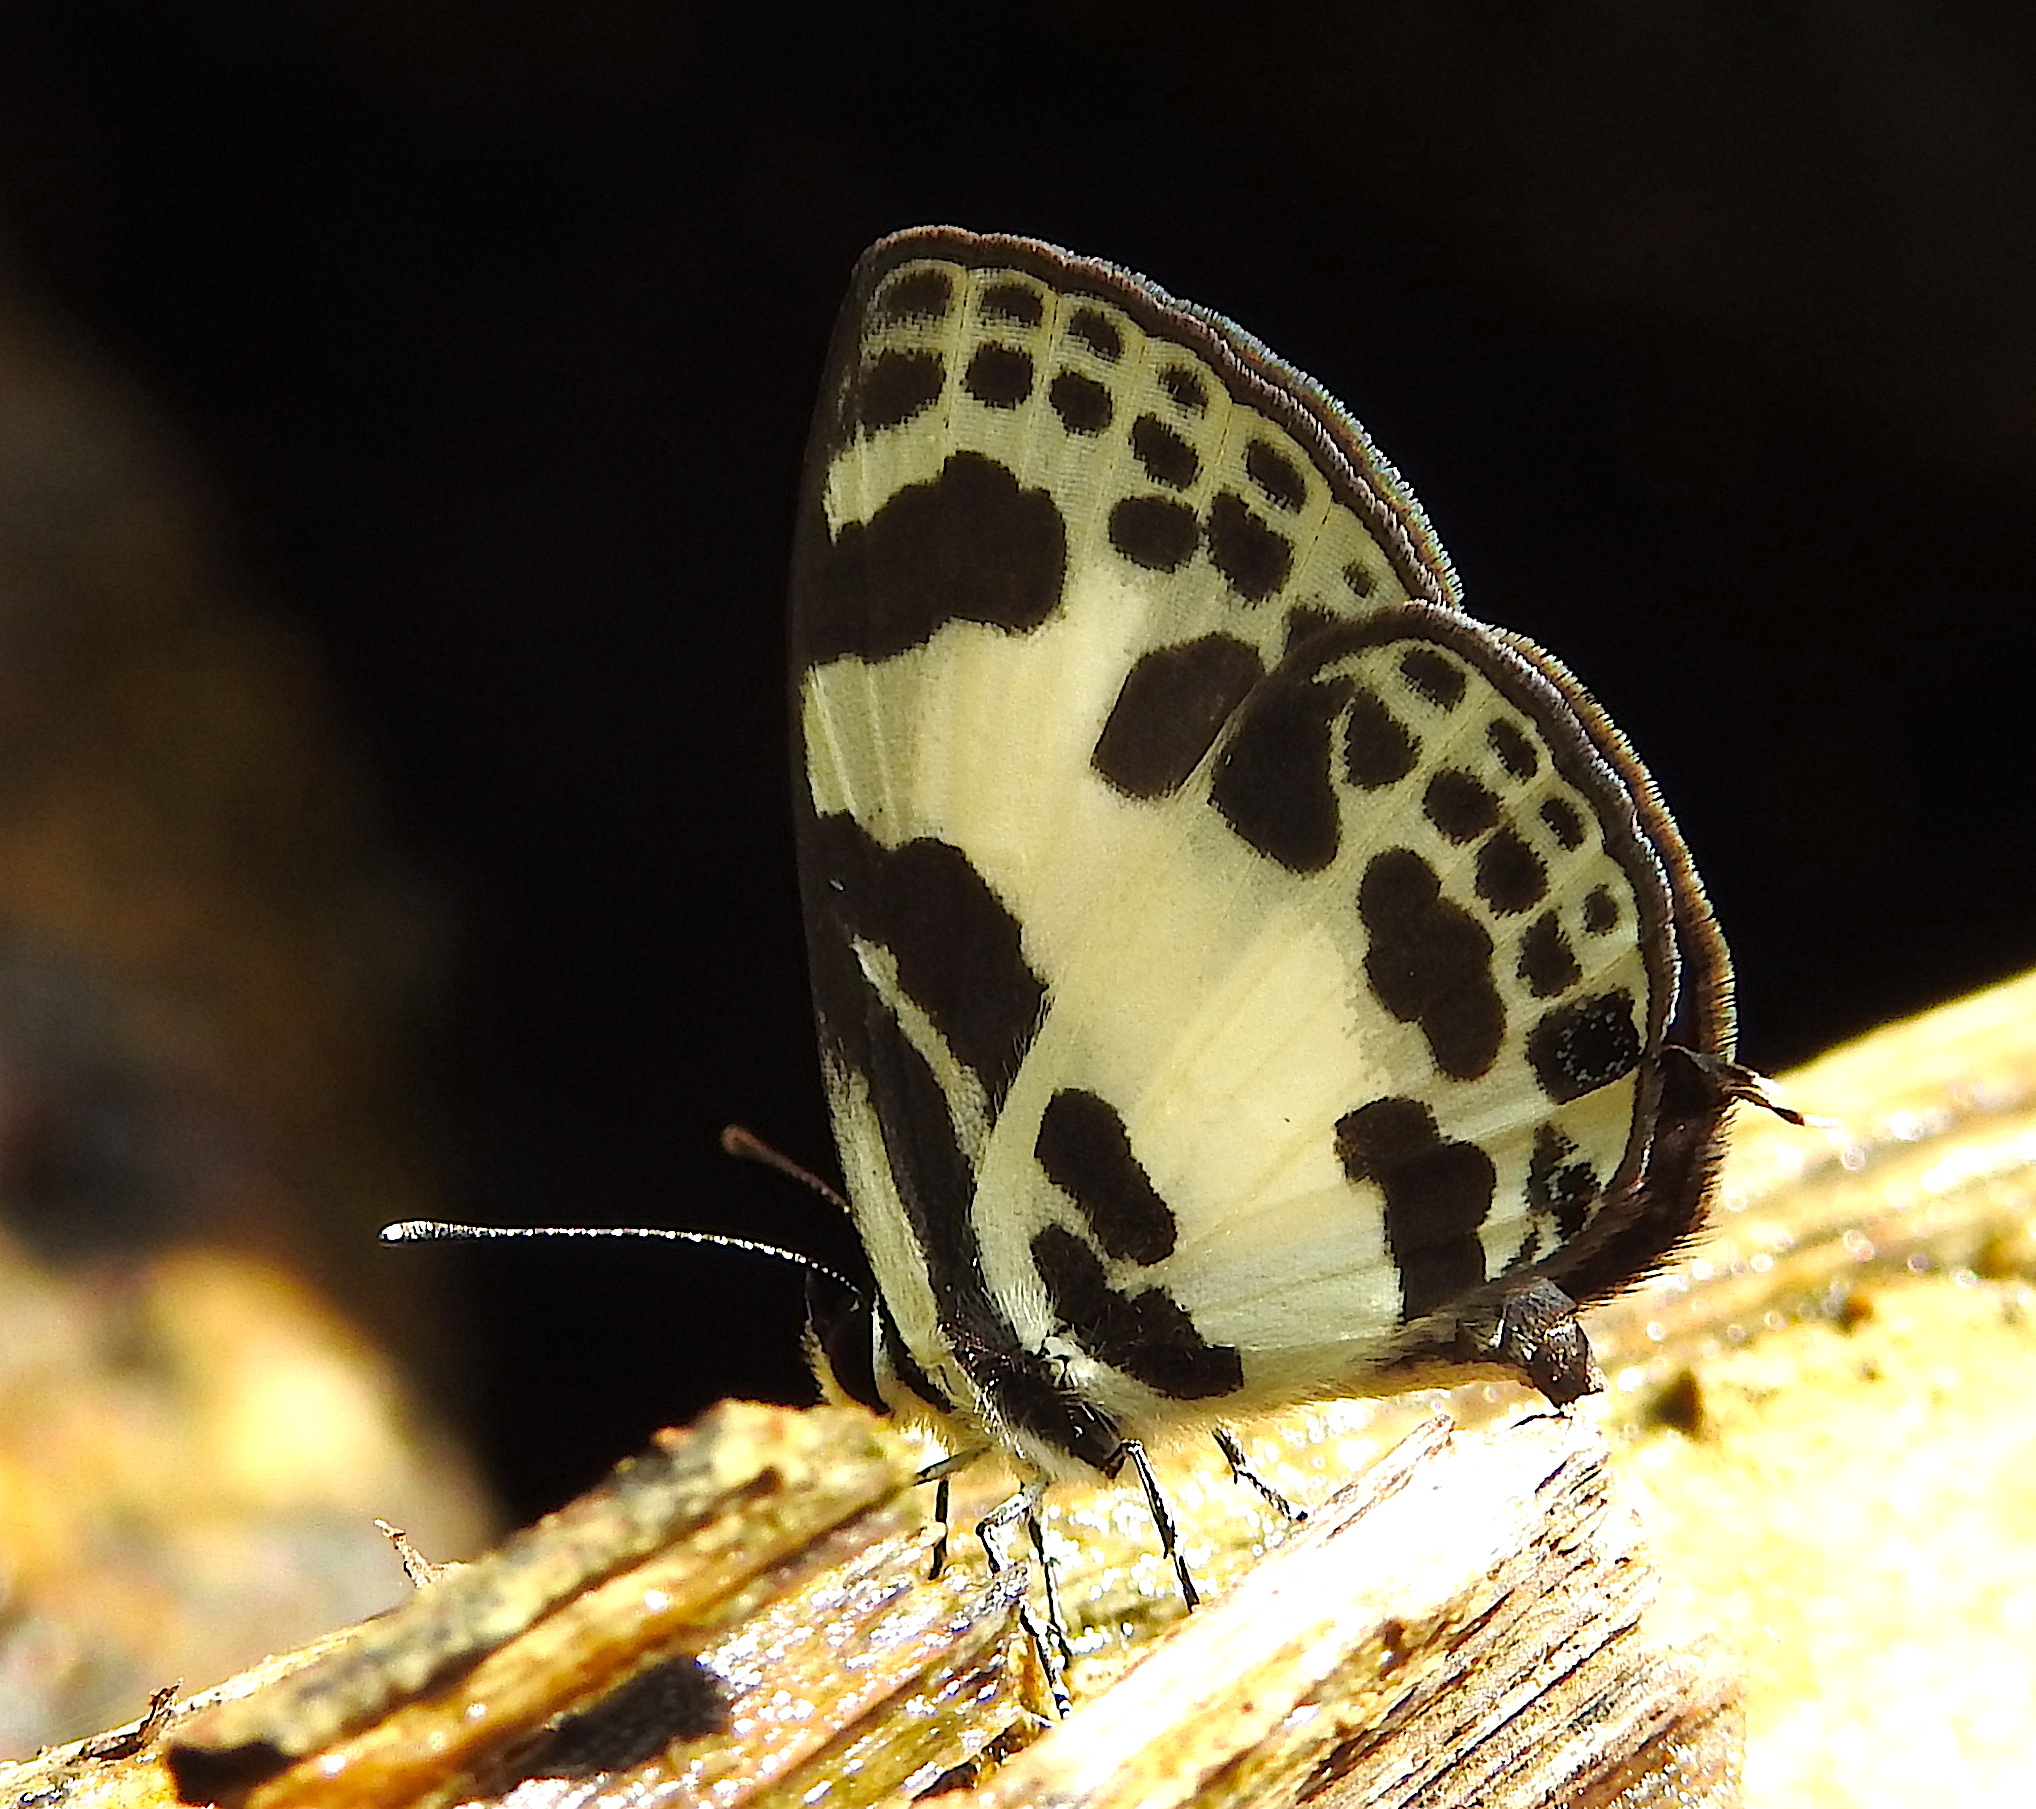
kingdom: Animalia
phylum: Arthropoda
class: Insecta
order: Lepidoptera
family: Lycaenidae
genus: Discolampa
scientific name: Discolampa ethion
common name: Banded blue pierrot
